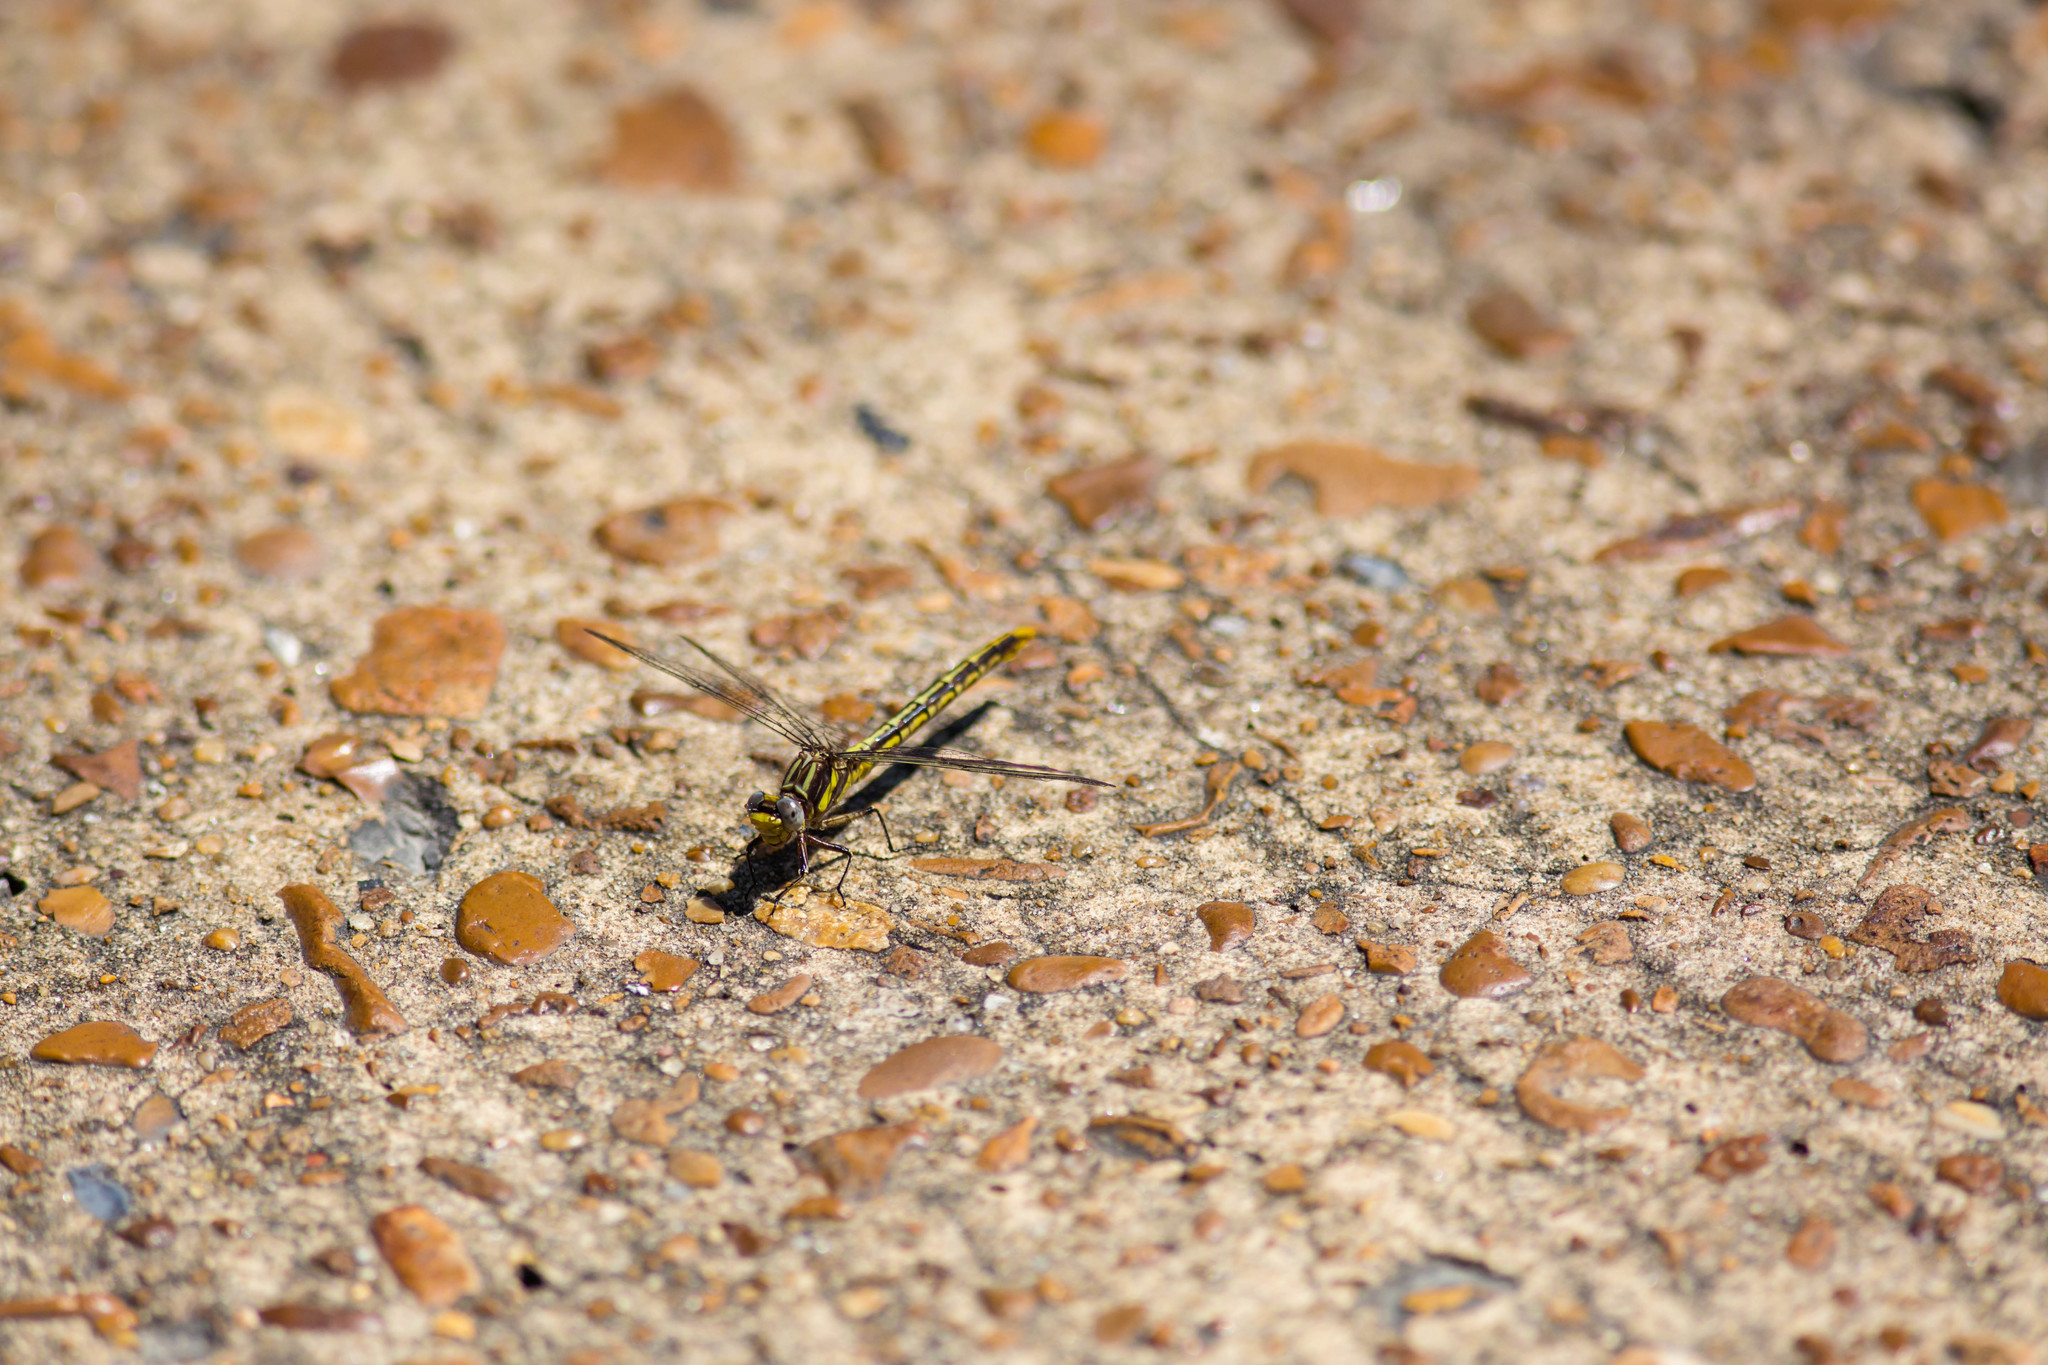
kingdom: Animalia
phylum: Arthropoda
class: Insecta
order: Odonata
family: Gomphidae
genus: Phanogomphus
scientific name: Phanogomphus exilis
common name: Lancet clubtail
